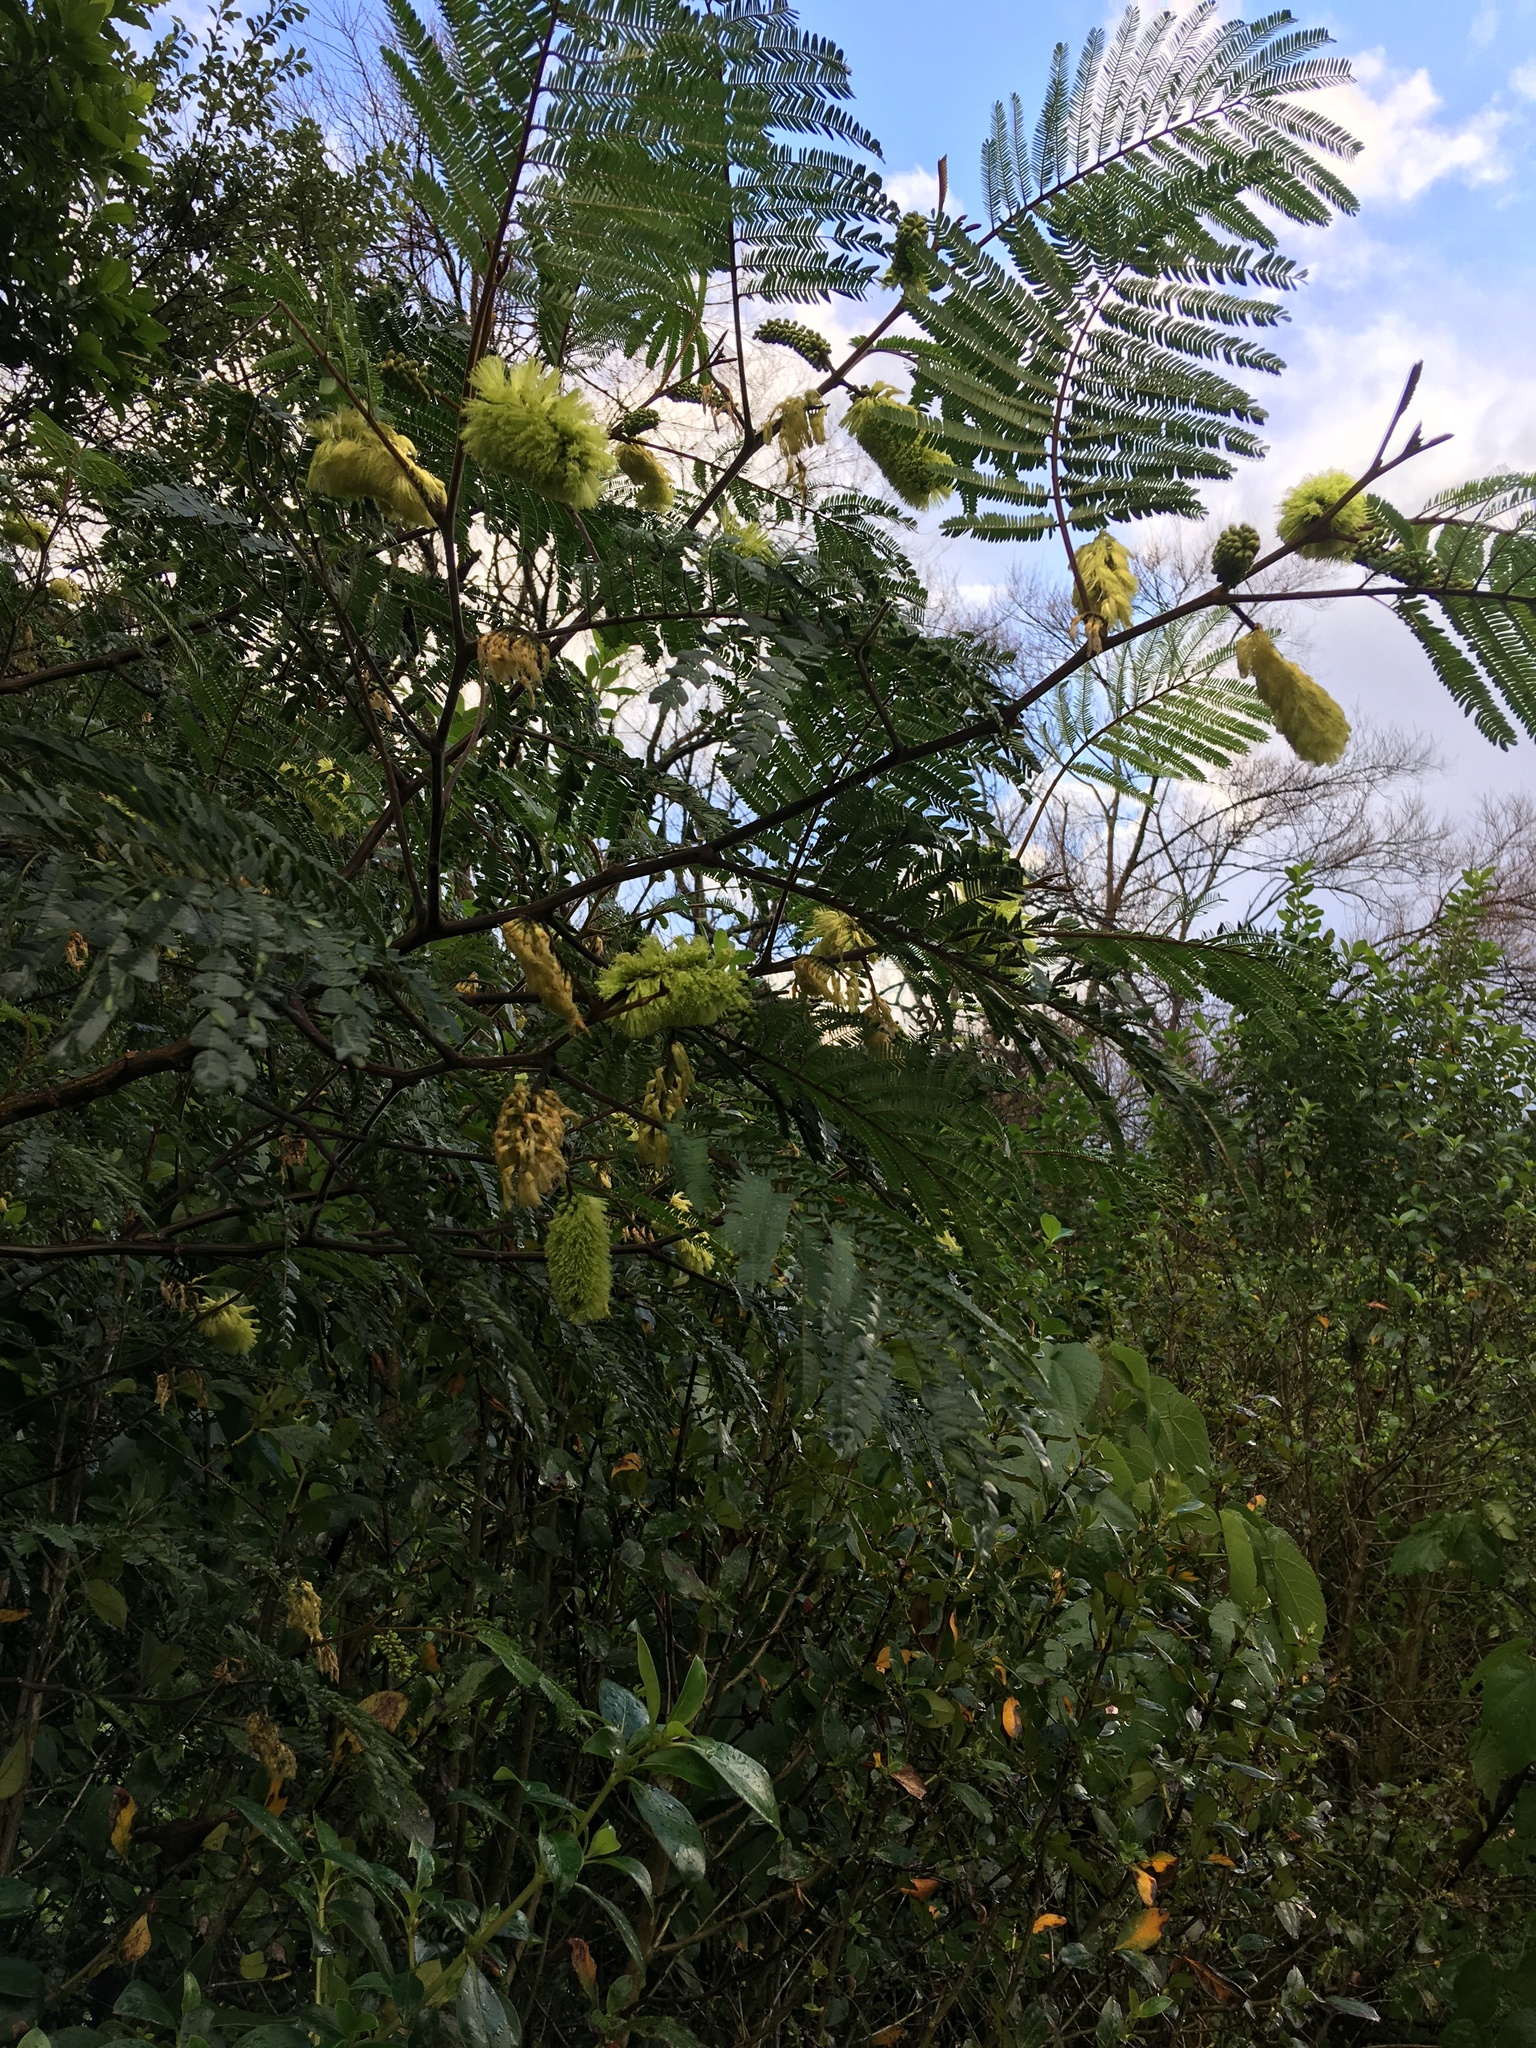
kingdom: Plantae
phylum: Tracheophyta
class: Magnoliopsida
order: Fabales
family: Fabaceae
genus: Paraserianthes
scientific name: Paraserianthes lophantha
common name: Plume albizia
